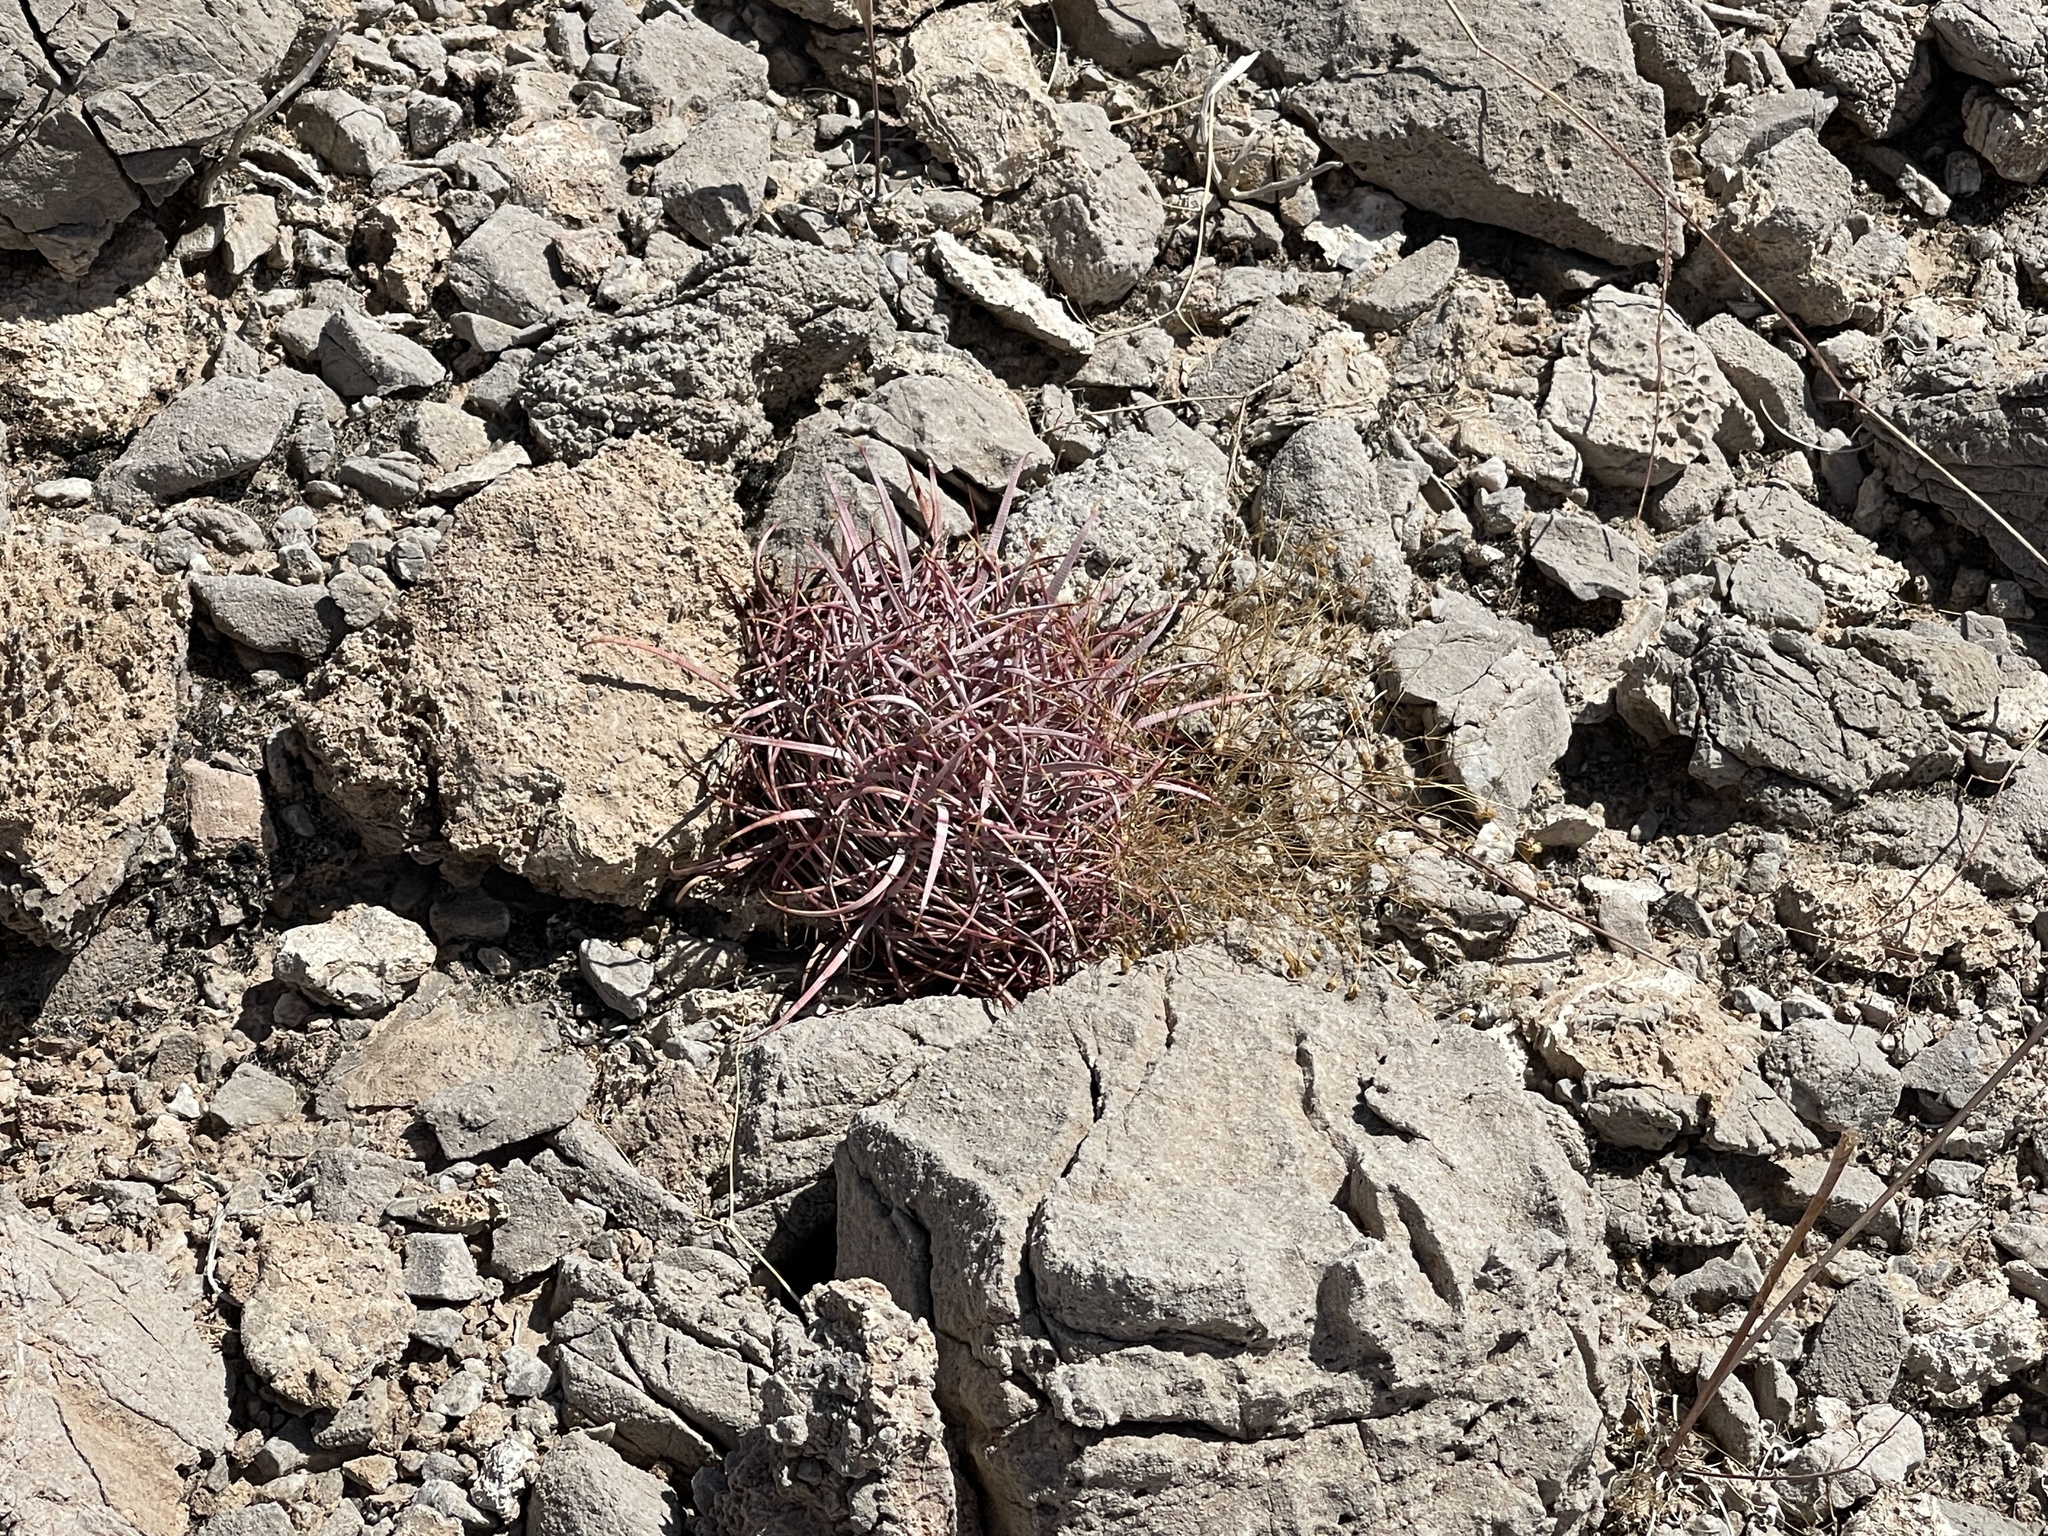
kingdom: Plantae
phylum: Tracheophyta
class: Magnoliopsida
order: Caryophyllales
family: Cactaceae
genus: Ferocactus
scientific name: Ferocactus cylindraceus
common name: California barrel cactus
